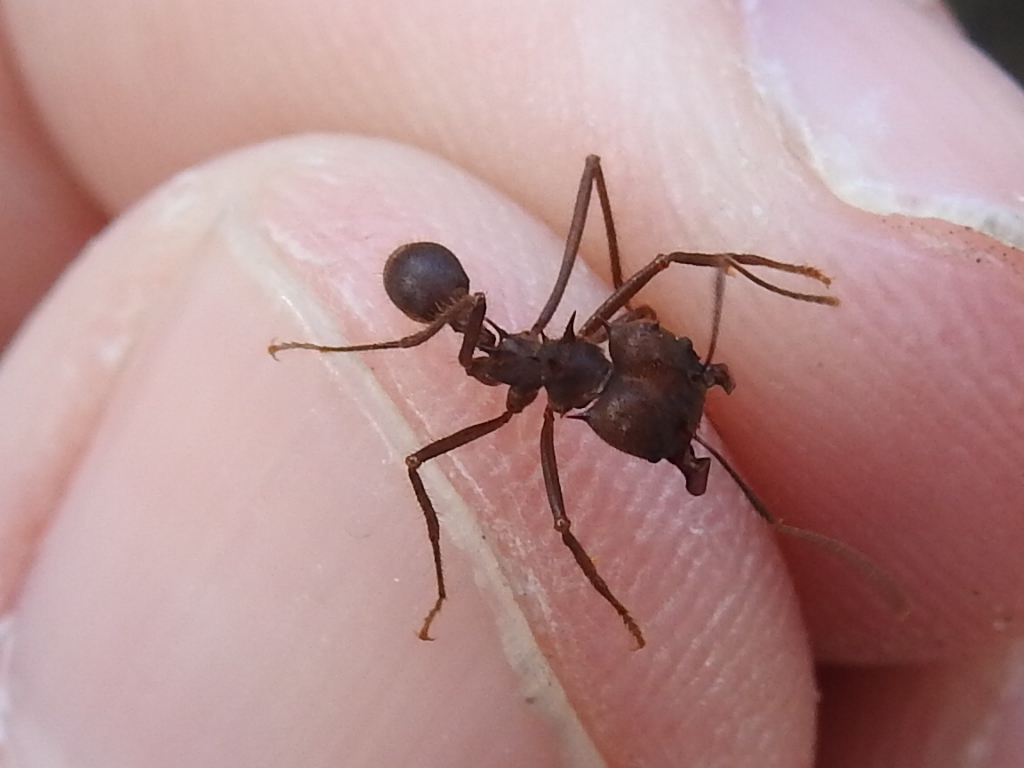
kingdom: Animalia
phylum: Arthropoda
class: Insecta
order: Hymenoptera
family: Formicidae
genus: Atta
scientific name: Atta texana
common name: Texas leafcutting ant
